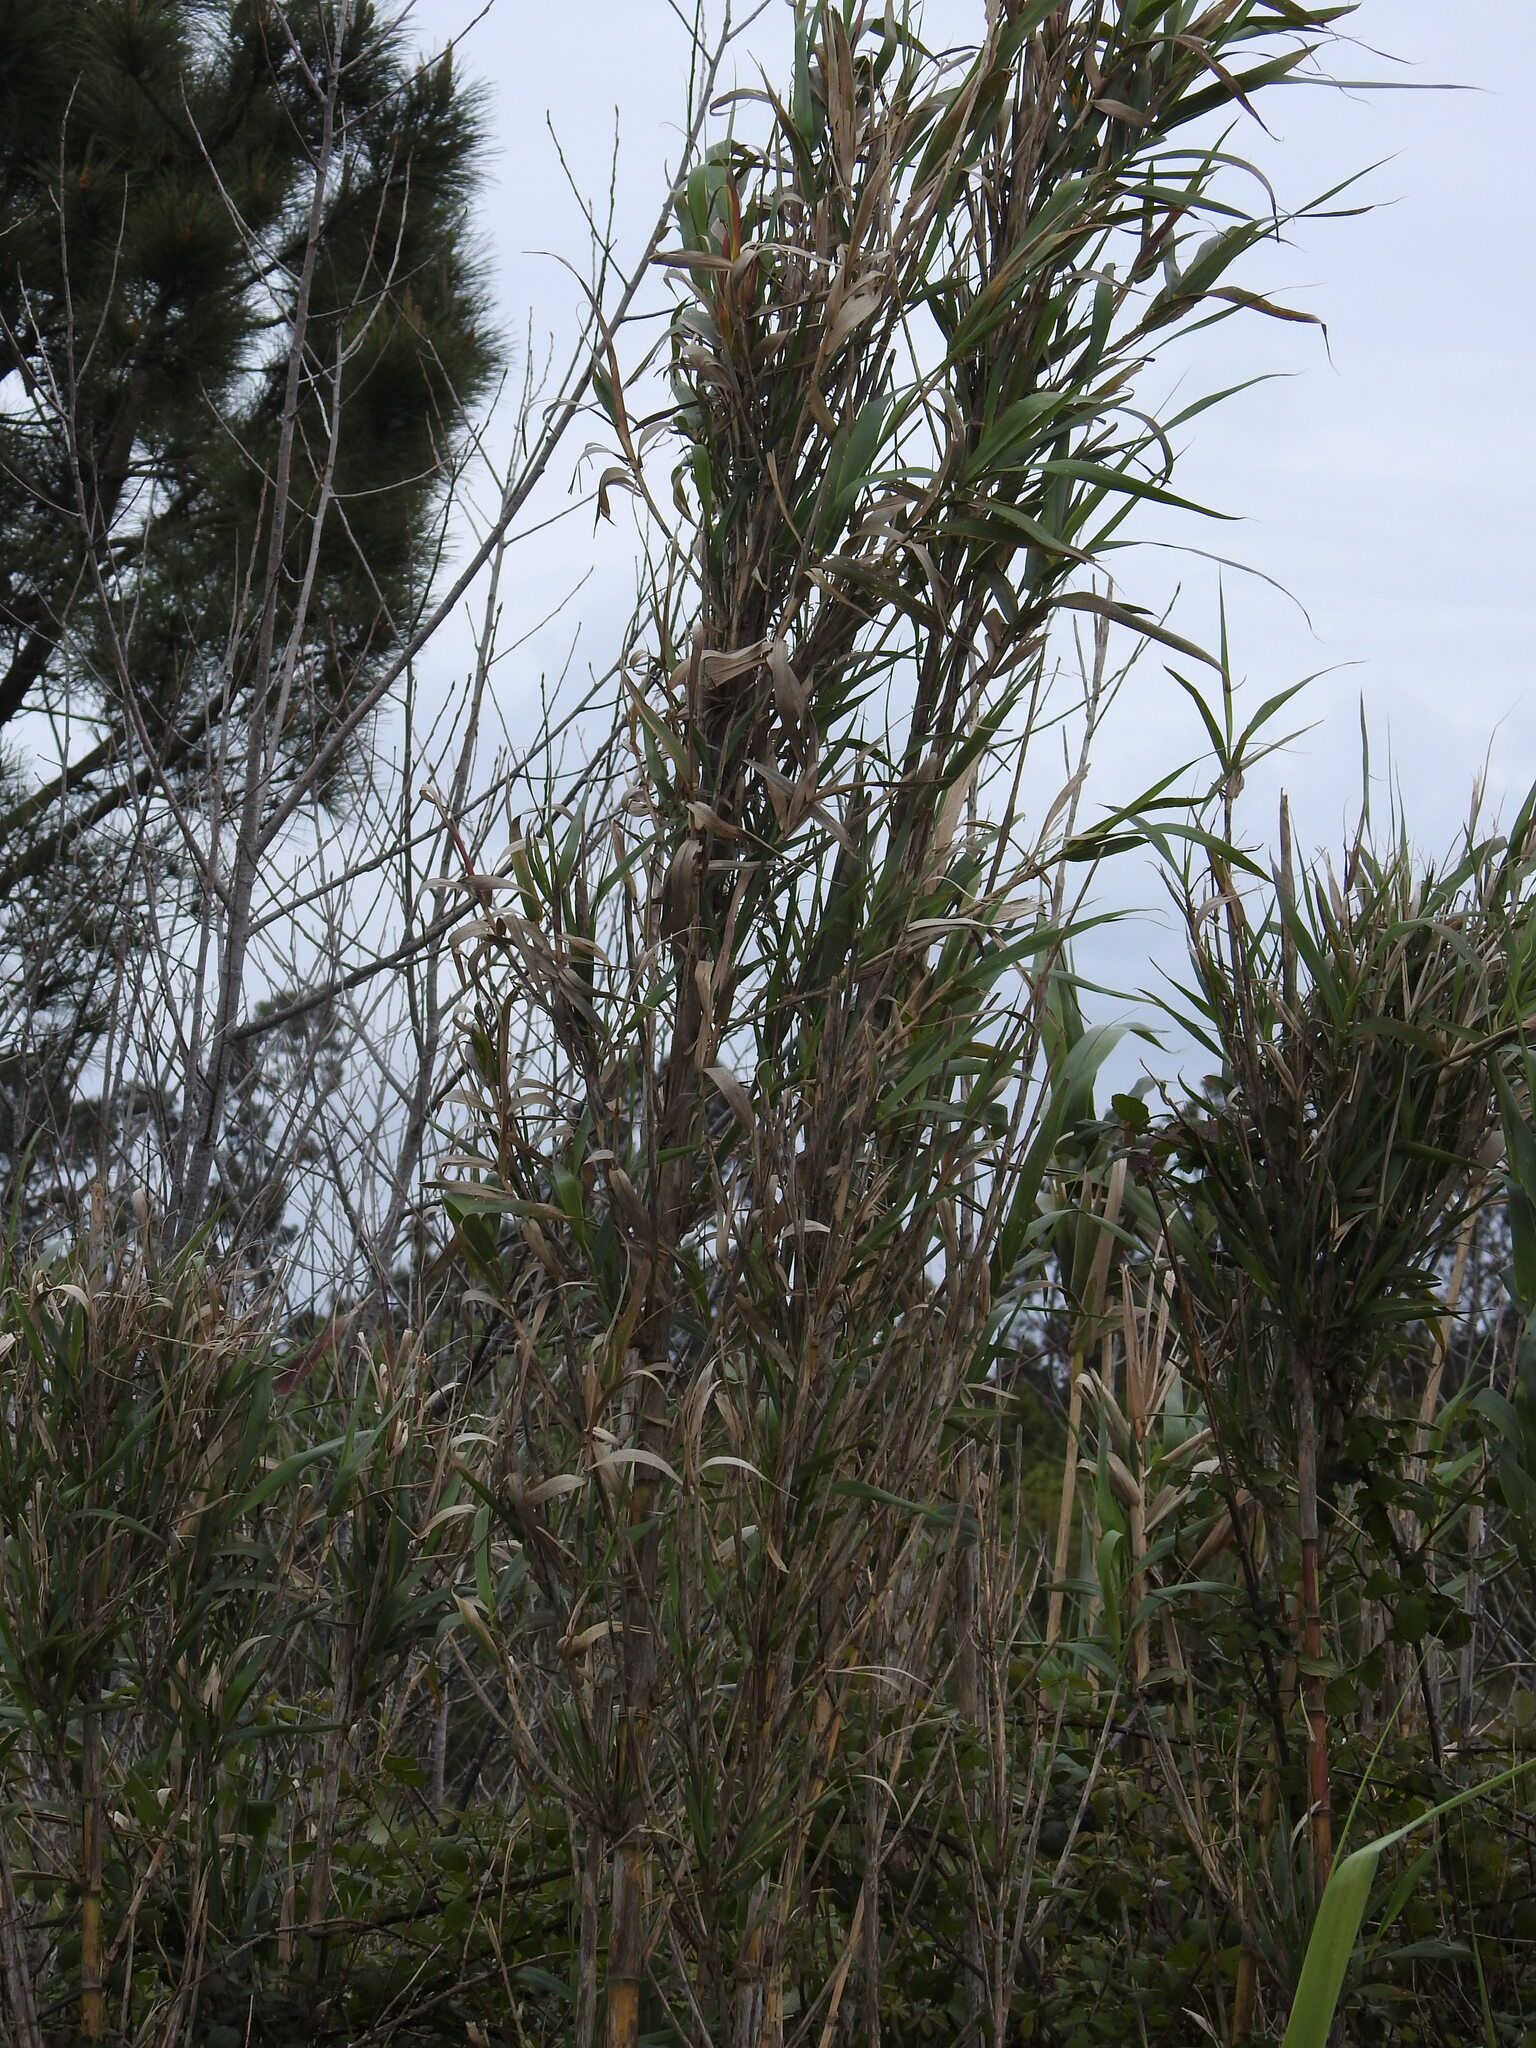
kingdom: Plantae
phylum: Tracheophyta
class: Liliopsida
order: Poales
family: Poaceae
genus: Arundo
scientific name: Arundo donax
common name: Giant reed
